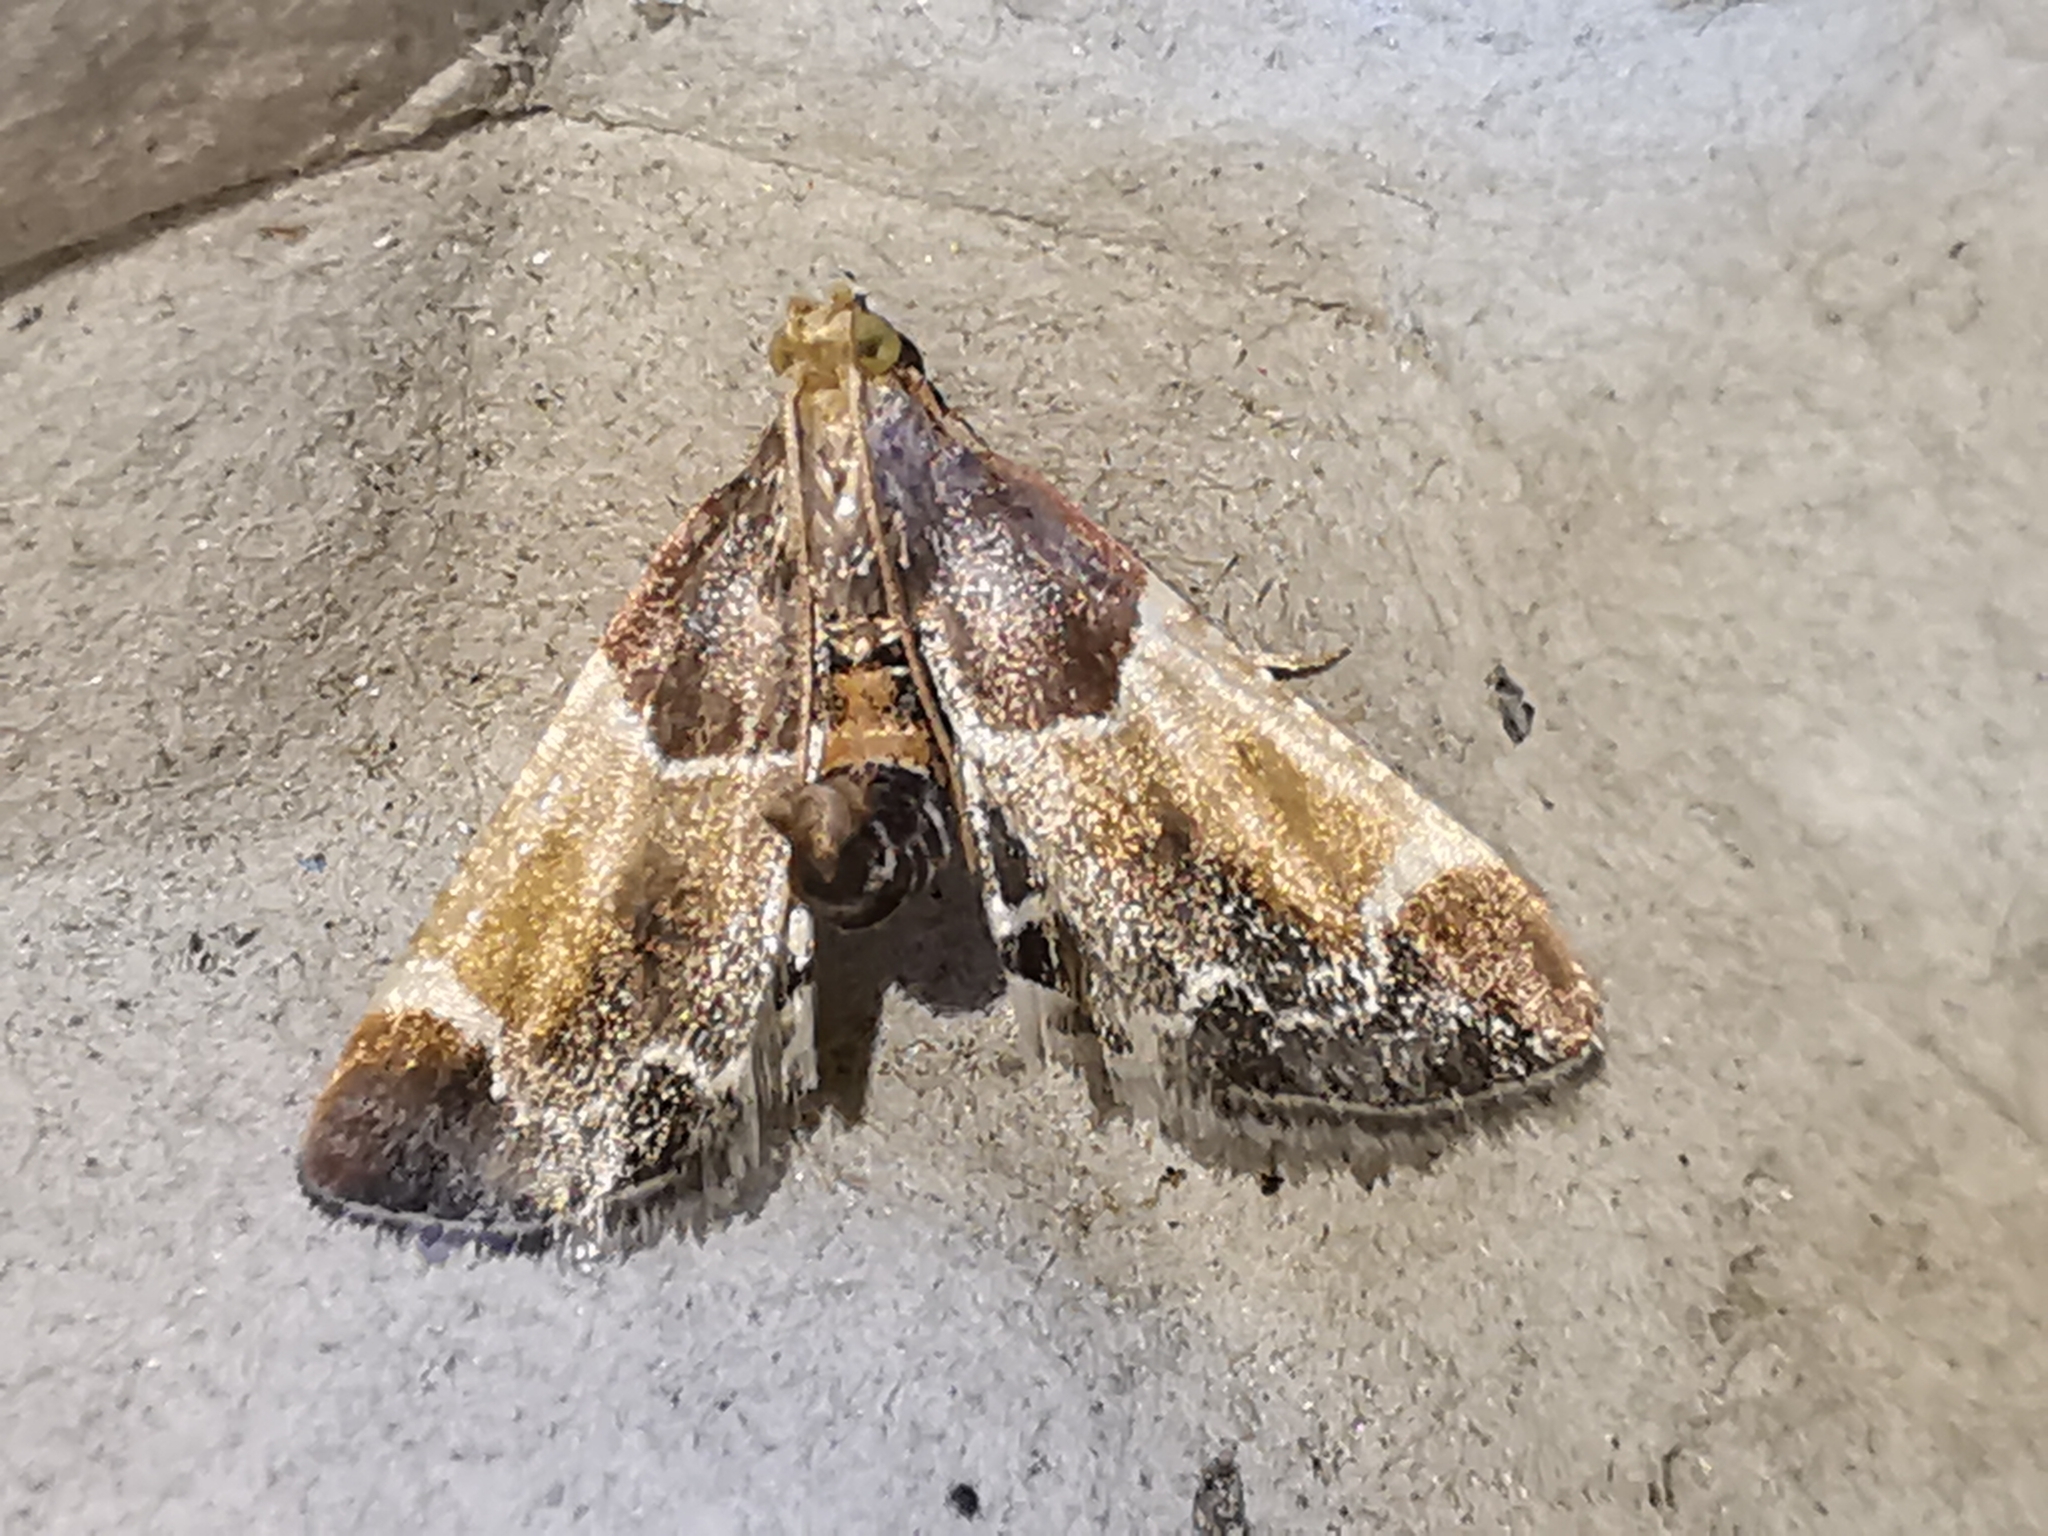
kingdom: Animalia
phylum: Arthropoda
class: Insecta
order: Lepidoptera
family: Pyralidae
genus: Pyralis
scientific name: Pyralis farinalis
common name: Meal moth
